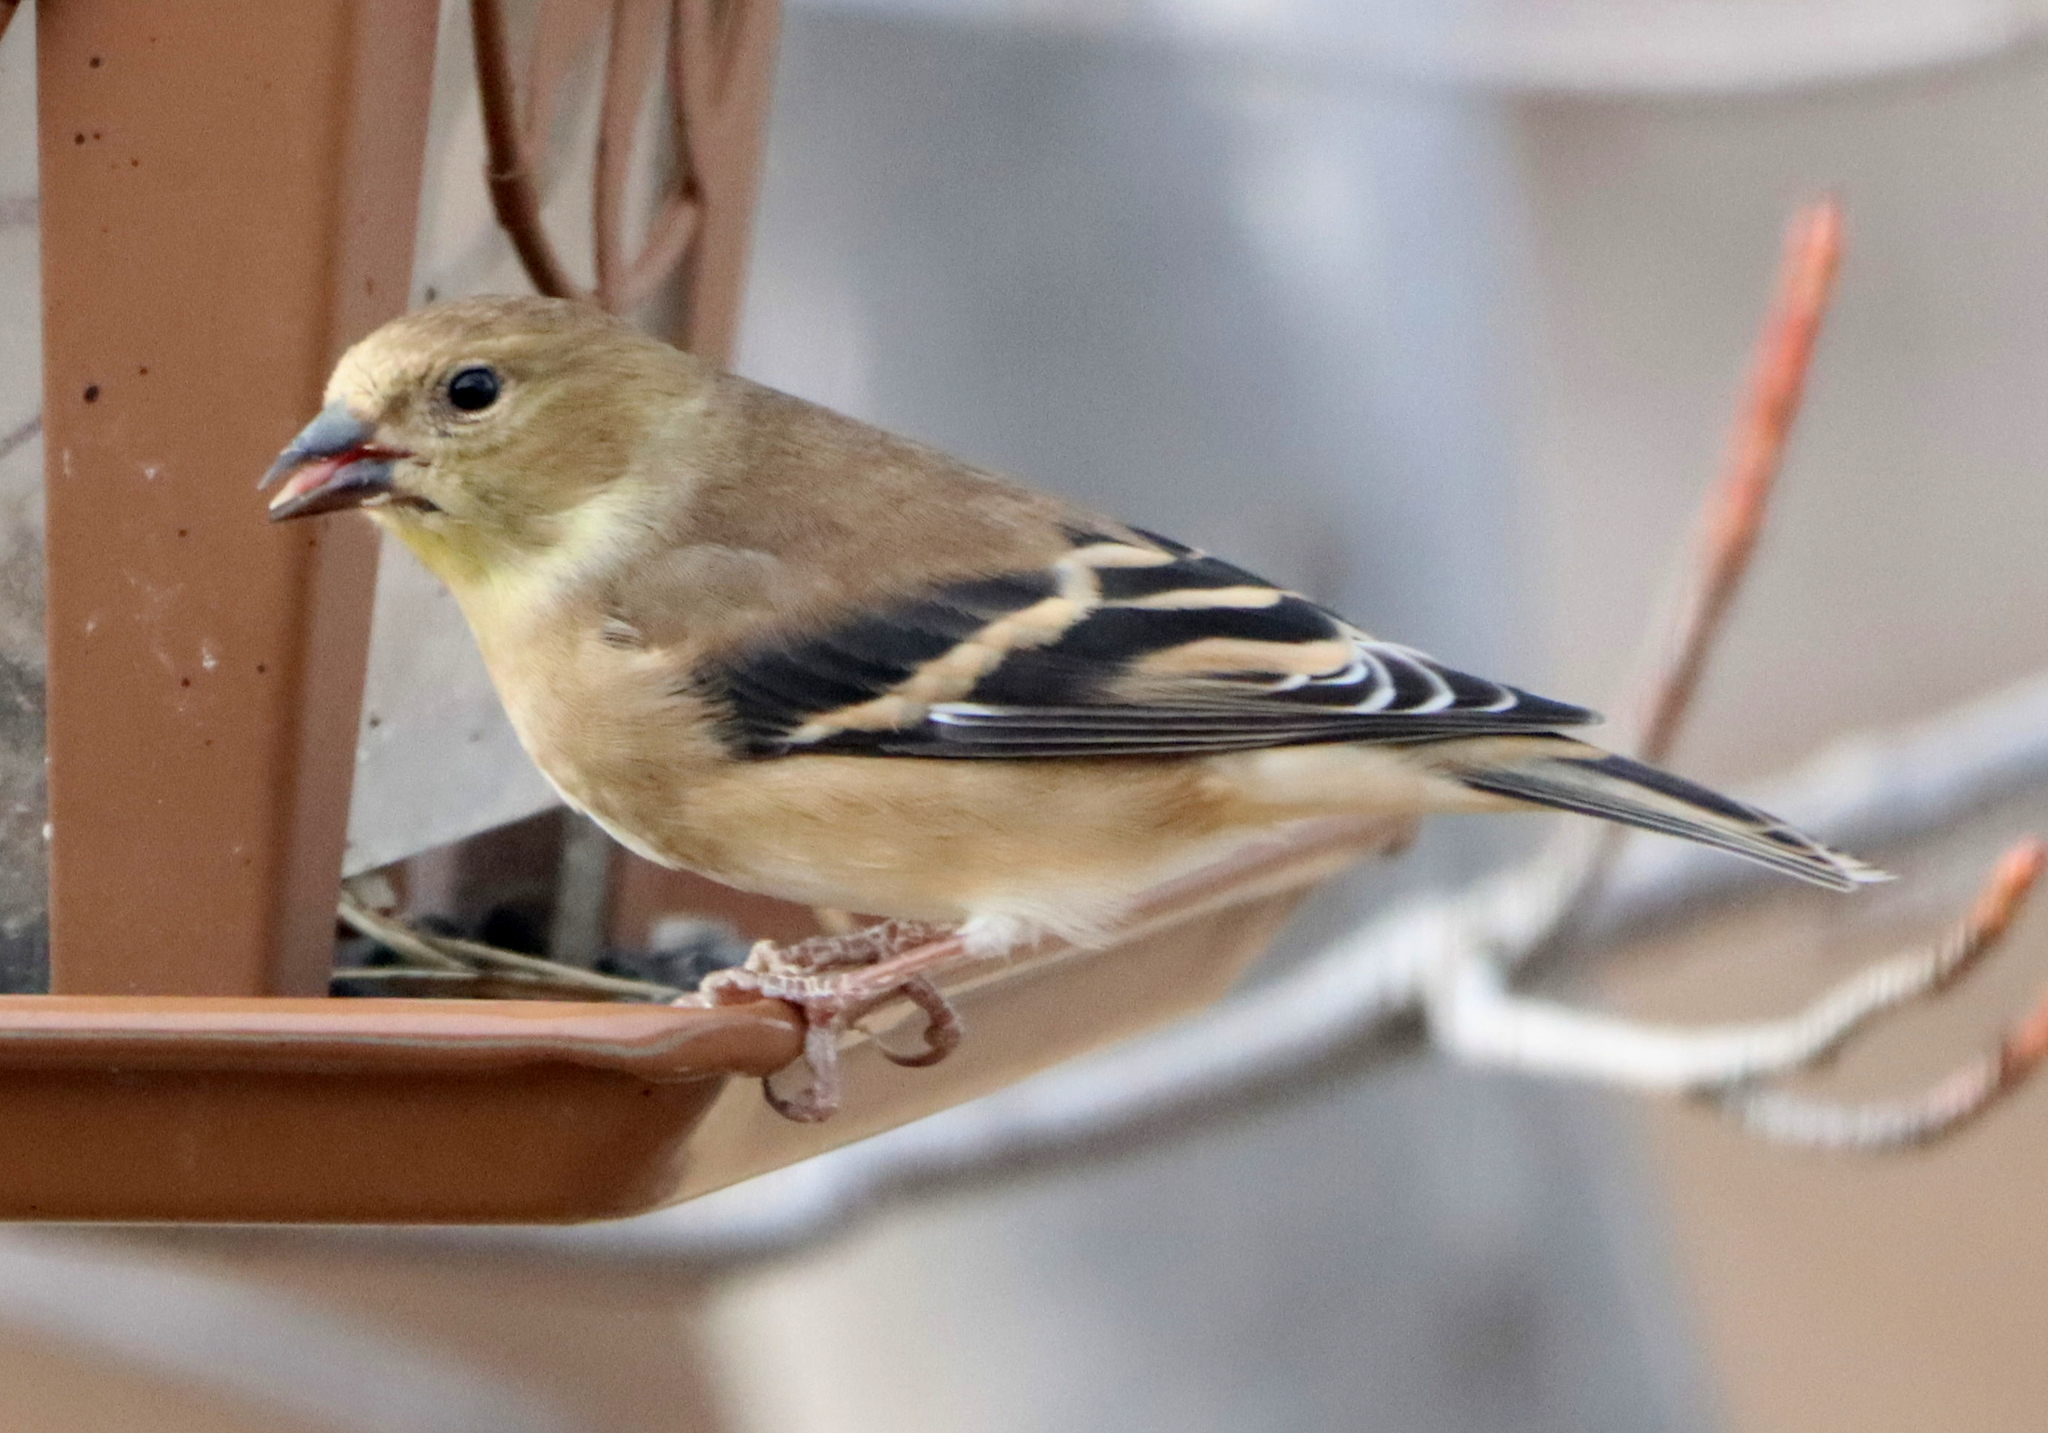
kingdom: Animalia
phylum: Chordata
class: Aves
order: Passeriformes
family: Fringillidae
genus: Spinus
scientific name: Spinus tristis
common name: American goldfinch
